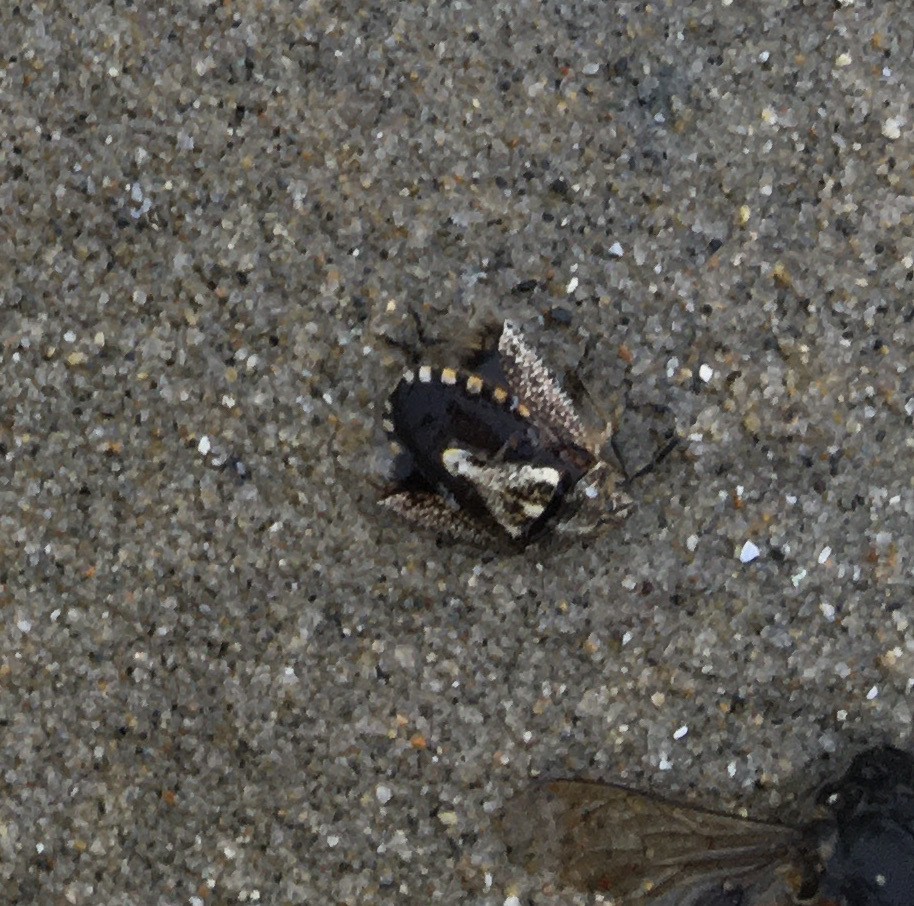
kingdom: Animalia
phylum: Arthropoda
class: Insecta
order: Hemiptera
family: Pentatomidae
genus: Agonoscelis
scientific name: Agonoscelis puberula
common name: African cluster bug
